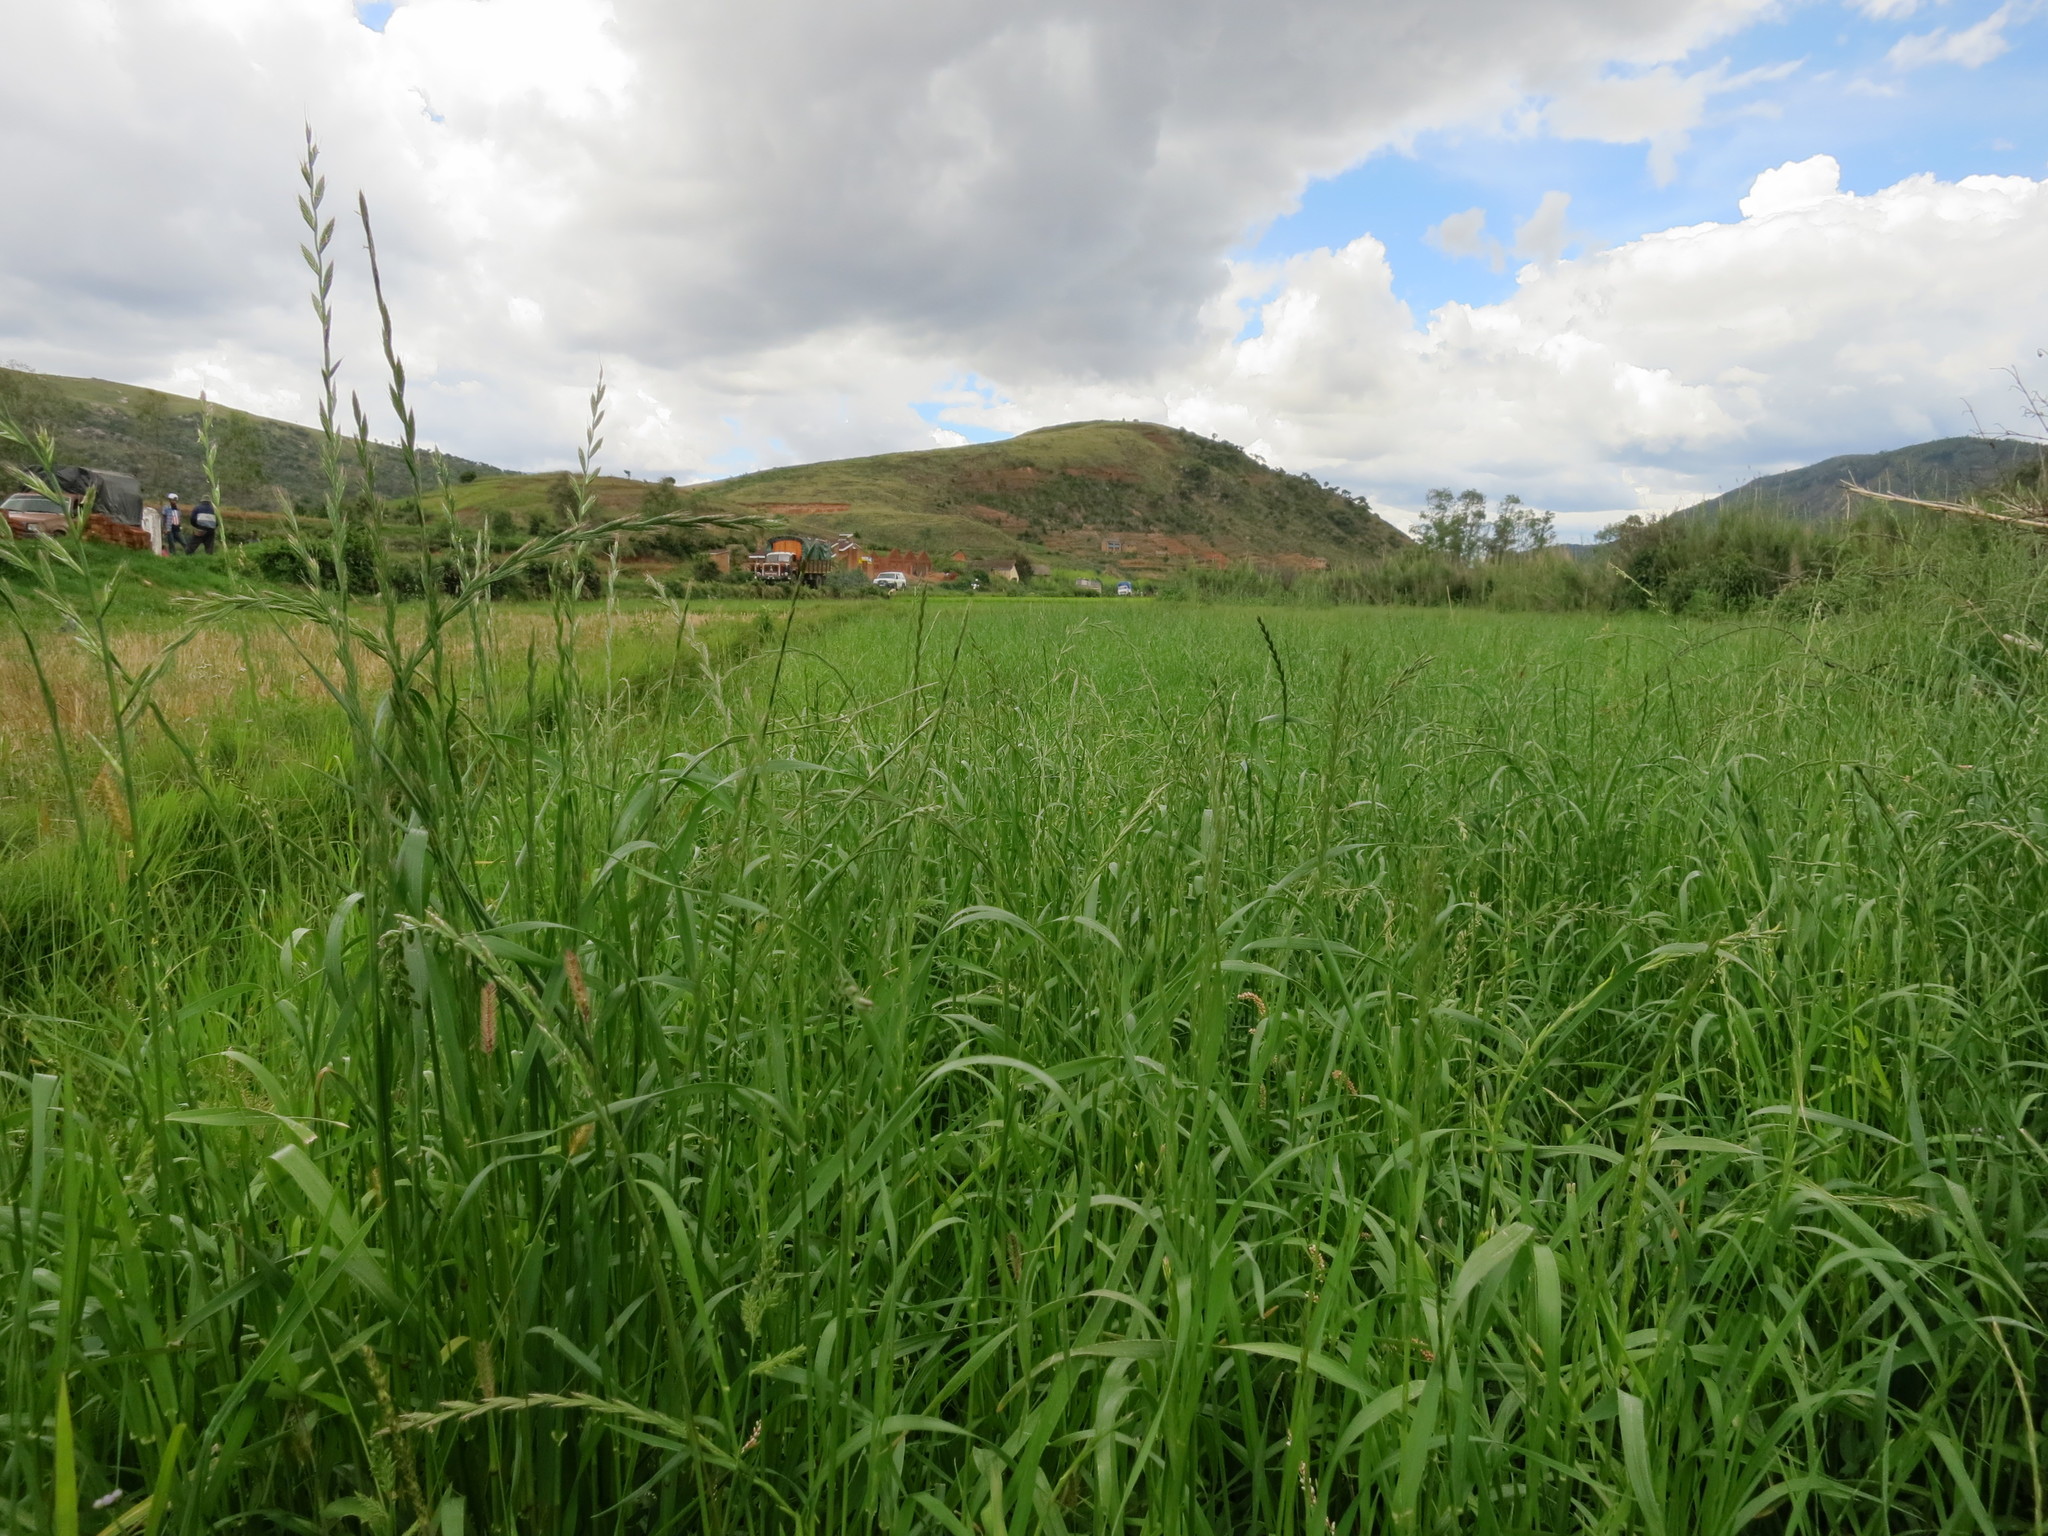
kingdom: Plantae
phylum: Tracheophyta
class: Liliopsida
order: Poales
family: Poaceae
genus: Lolium
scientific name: Lolium temulentum
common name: Darnel
